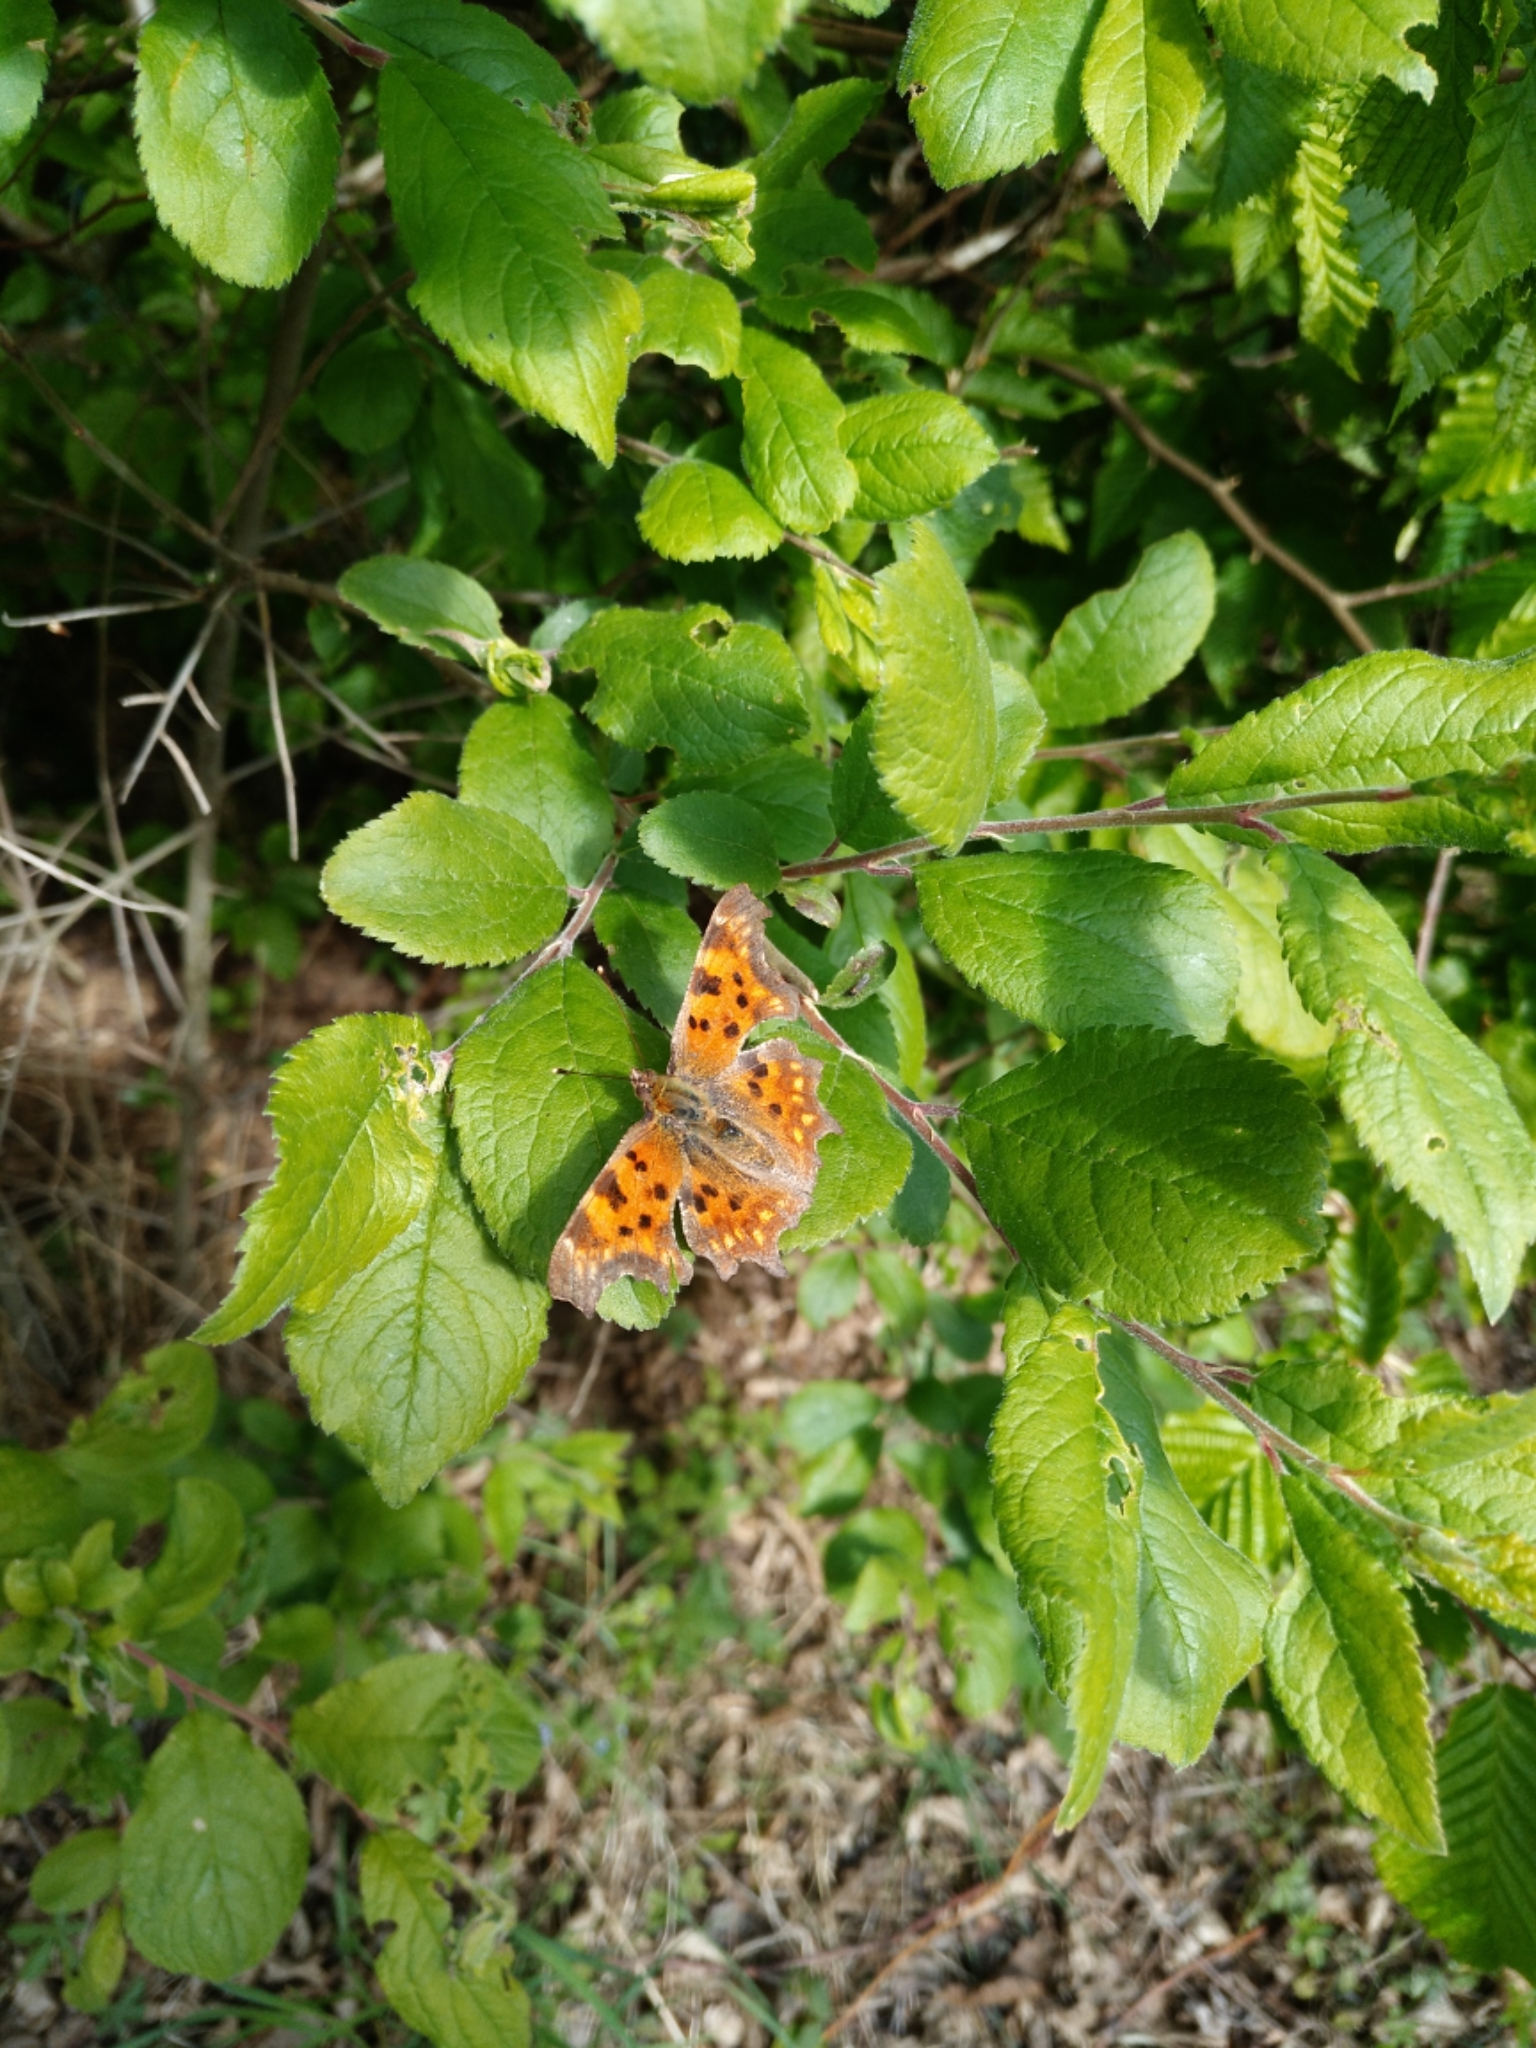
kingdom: Animalia
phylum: Arthropoda
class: Insecta
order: Lepidoptera
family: Nymphalidae
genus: Polygonia
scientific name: Polygonia c-album
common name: Comma
